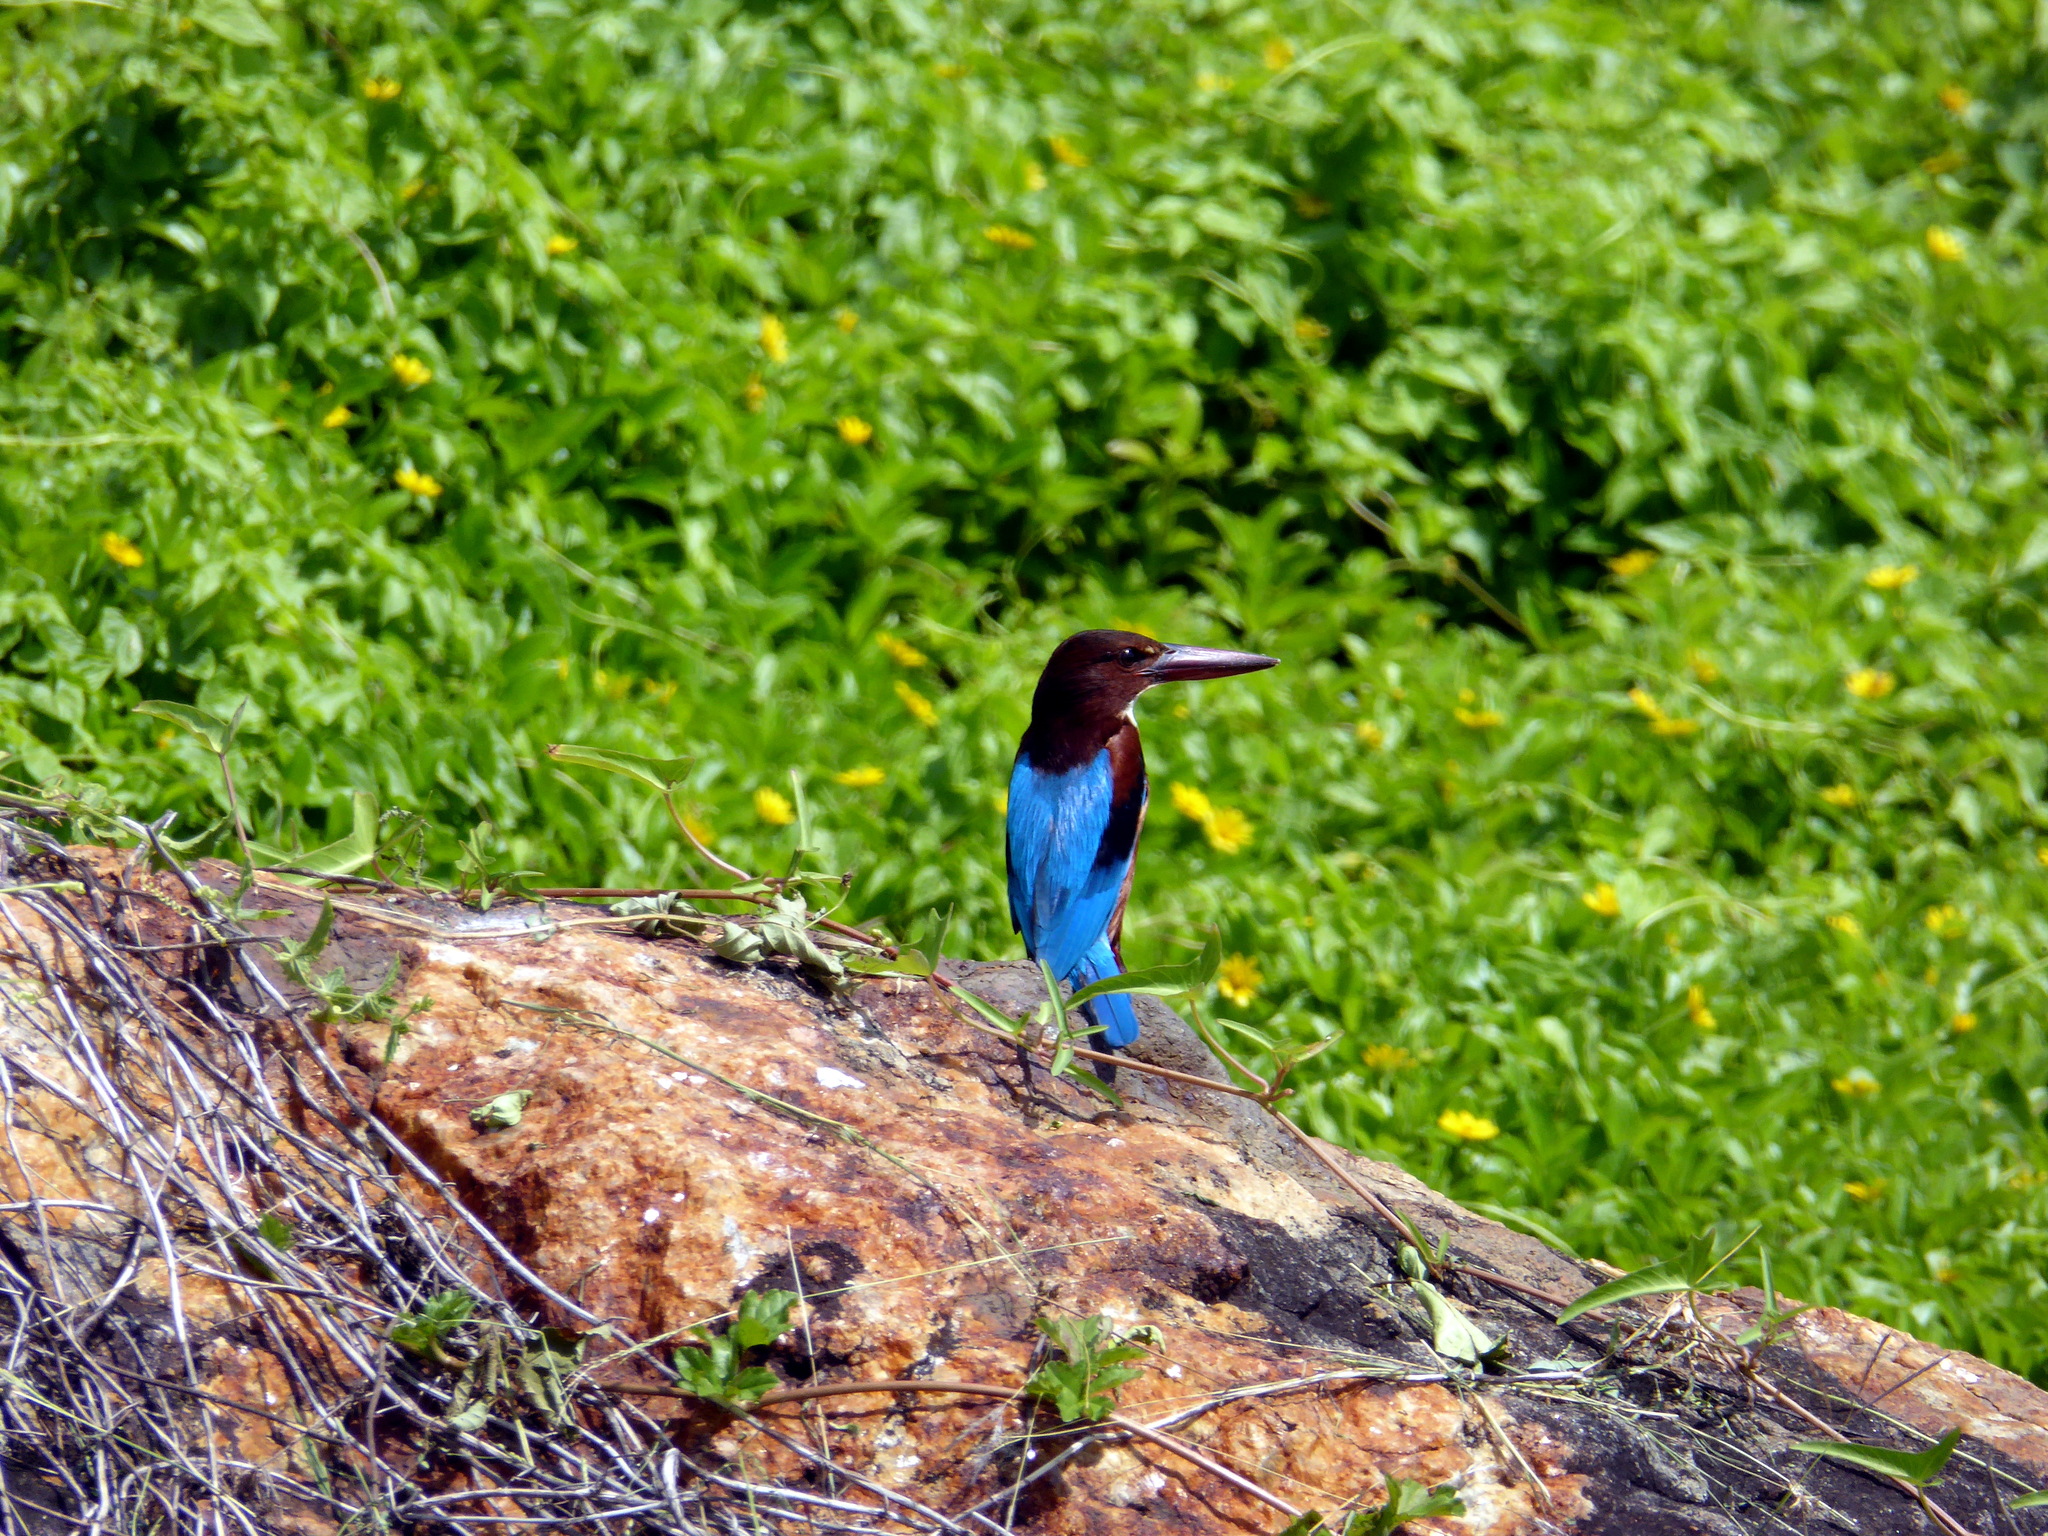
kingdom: Animalia
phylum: Chordata
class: Aves
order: Coraciiformes
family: Alcedinidae
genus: Halcyon
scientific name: Halcyon smyrnensis
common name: White-throated kingfisher
